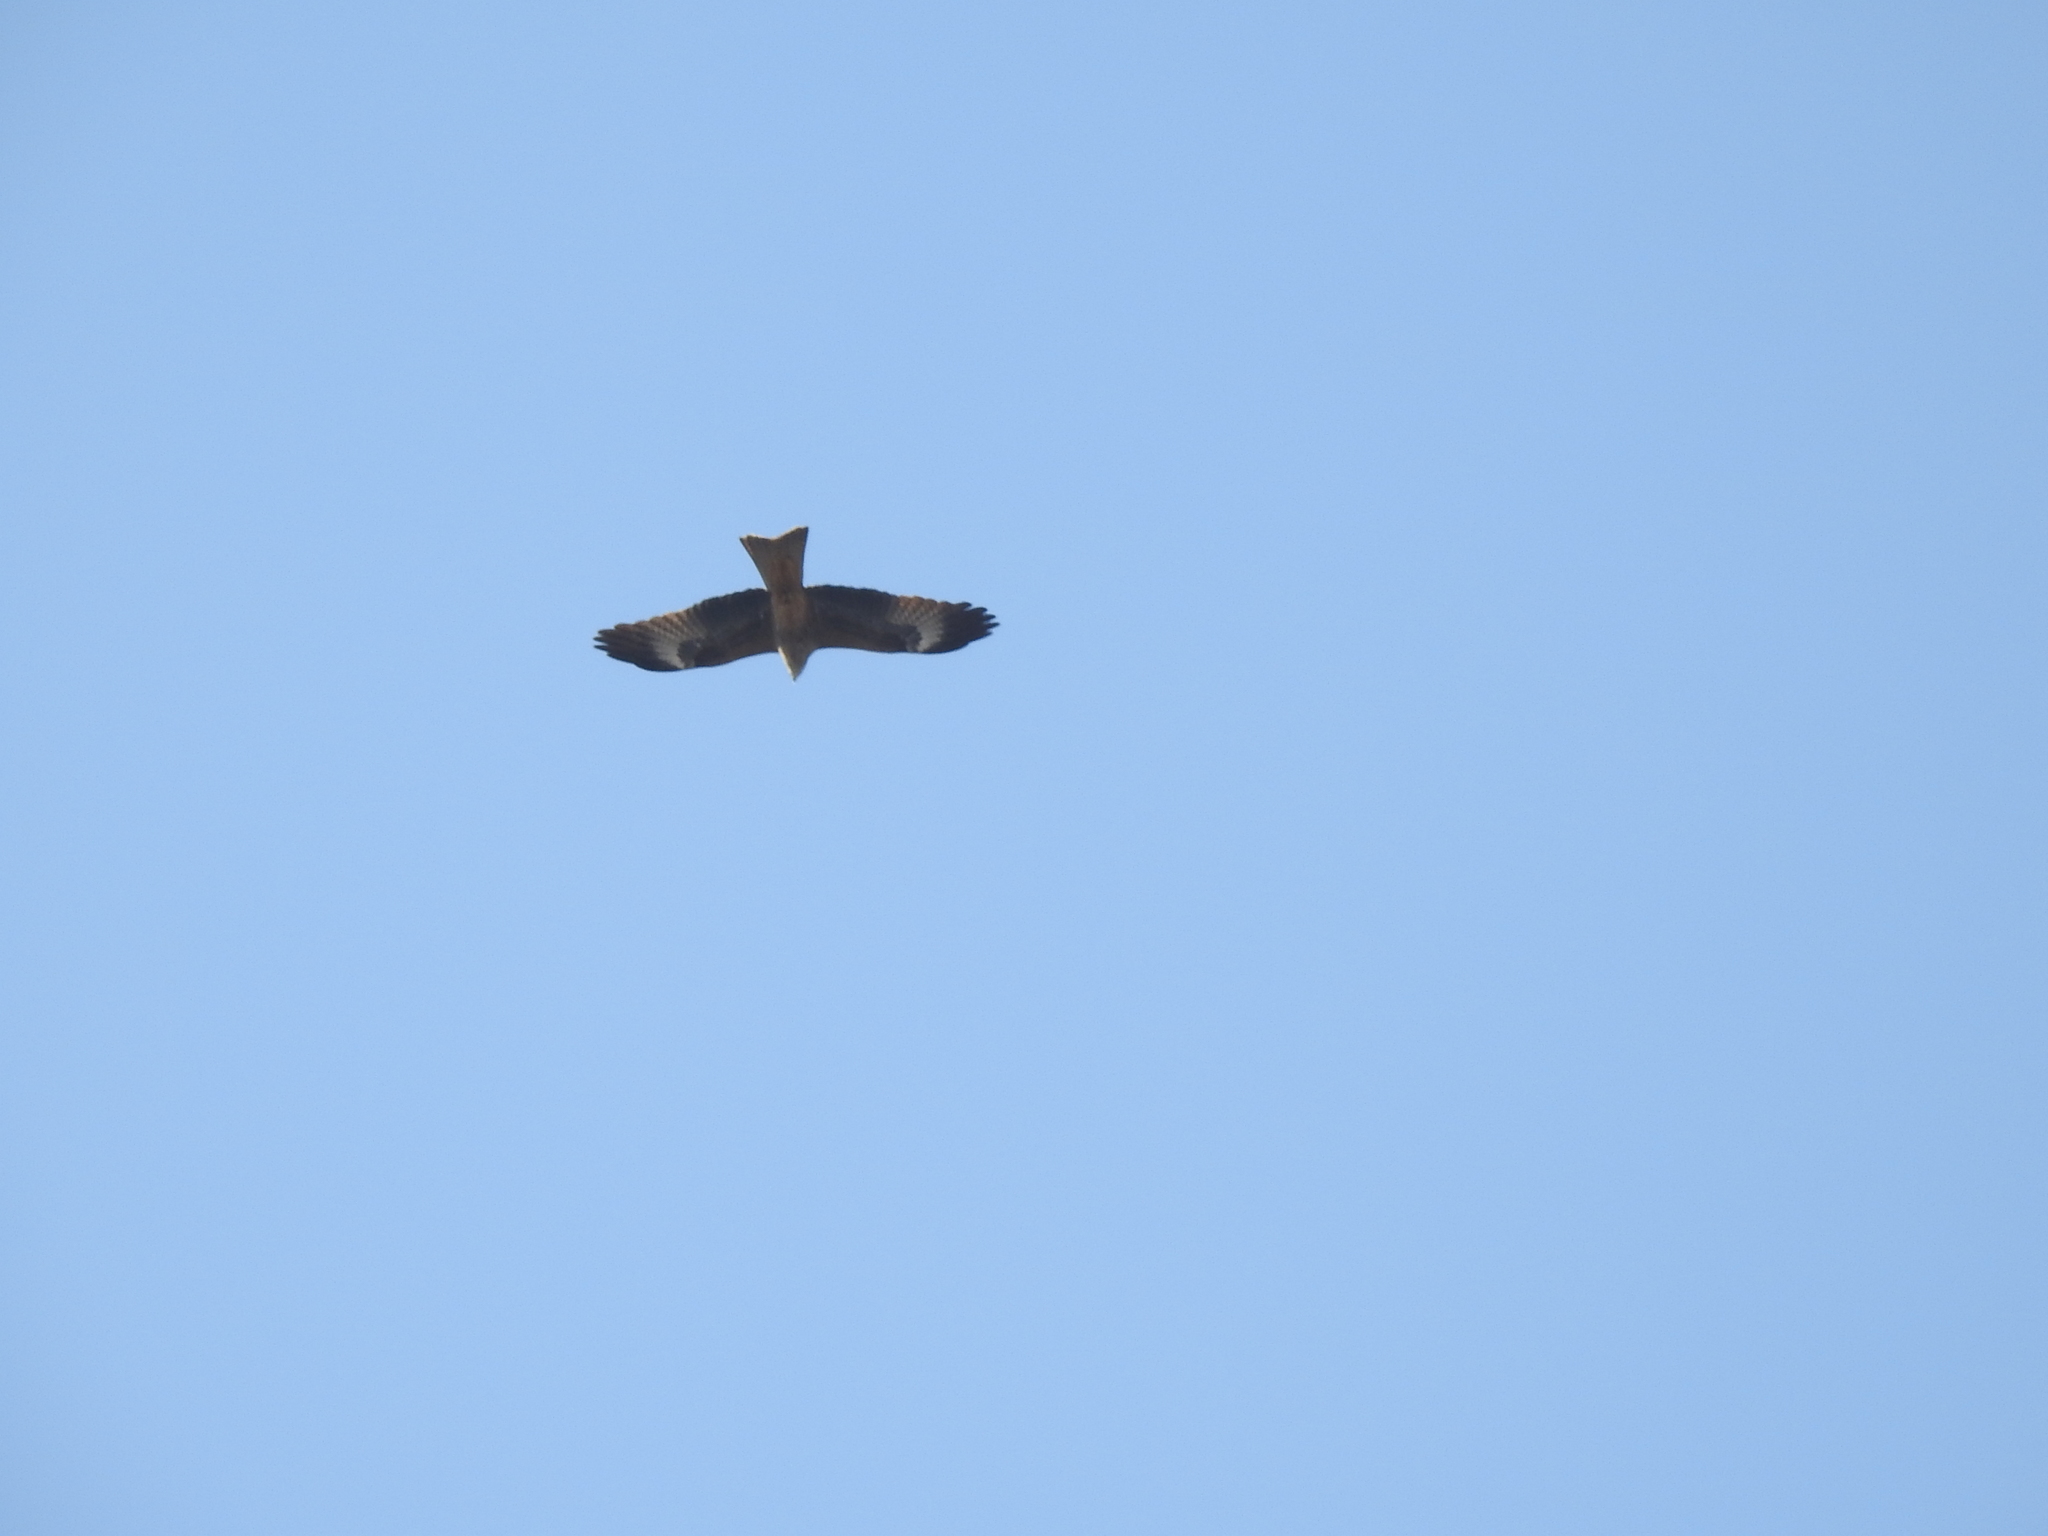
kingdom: Animalia
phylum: Chordata
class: Aves
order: Accipitriformes
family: Accipitridae
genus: Milvus
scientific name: Milvus migrans
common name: Black kite
